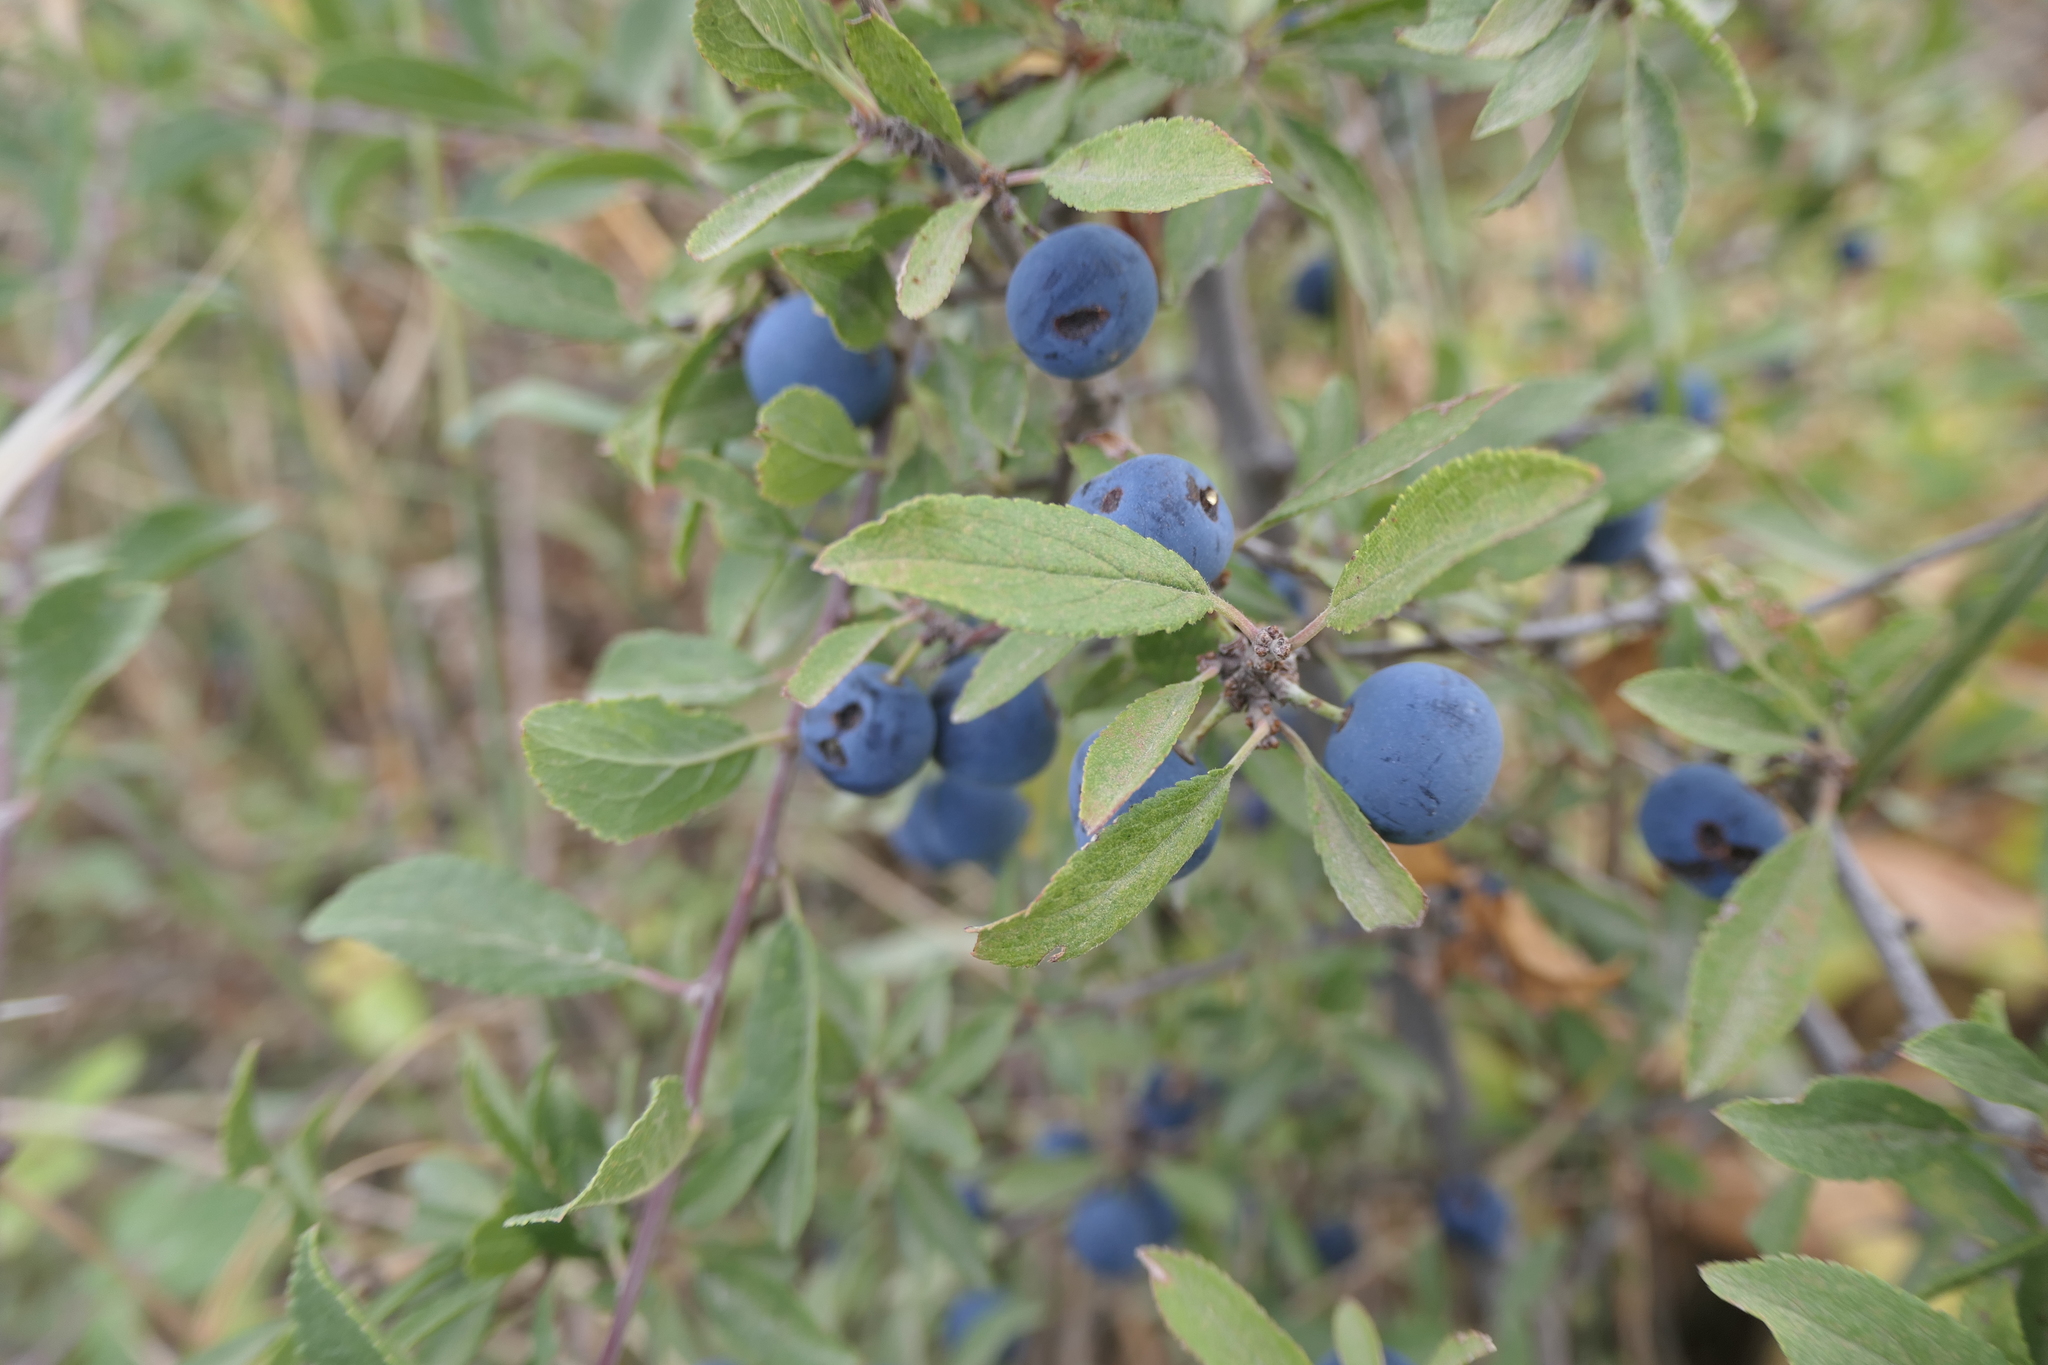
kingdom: Plantae
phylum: Tracheophyta
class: Magnoliopsida
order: Rosales
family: Rosaceae
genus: Prunus
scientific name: Prunus spinosa
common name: Blackthorn
